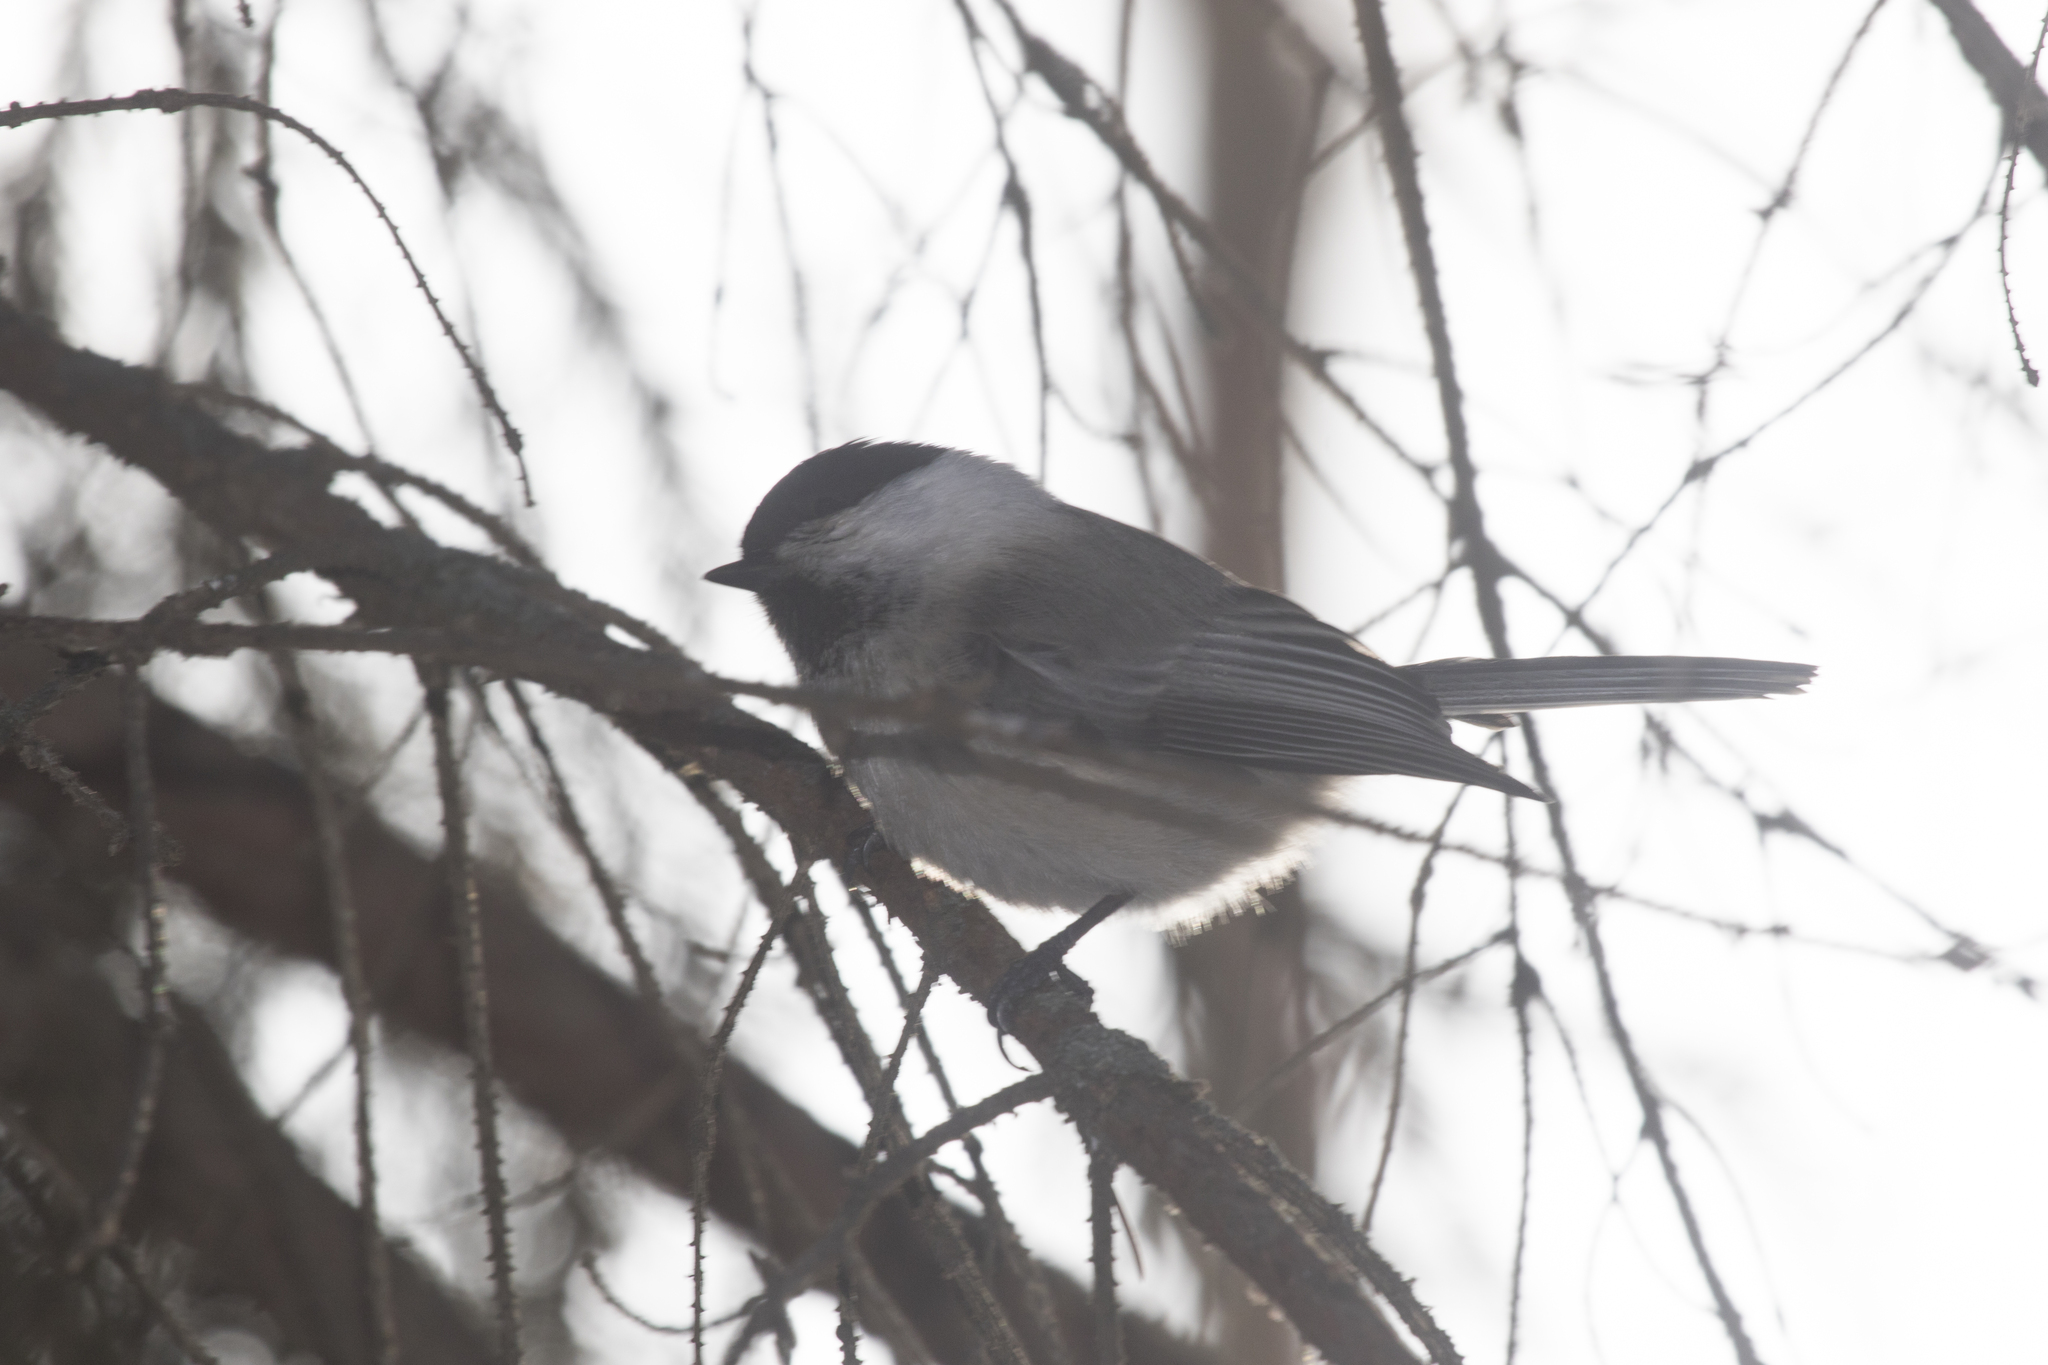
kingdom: Animalia
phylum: Chordata
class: Aves
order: Passeriformes
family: Paridae
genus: Poecile
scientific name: Poecile montanus
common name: Willow tit
